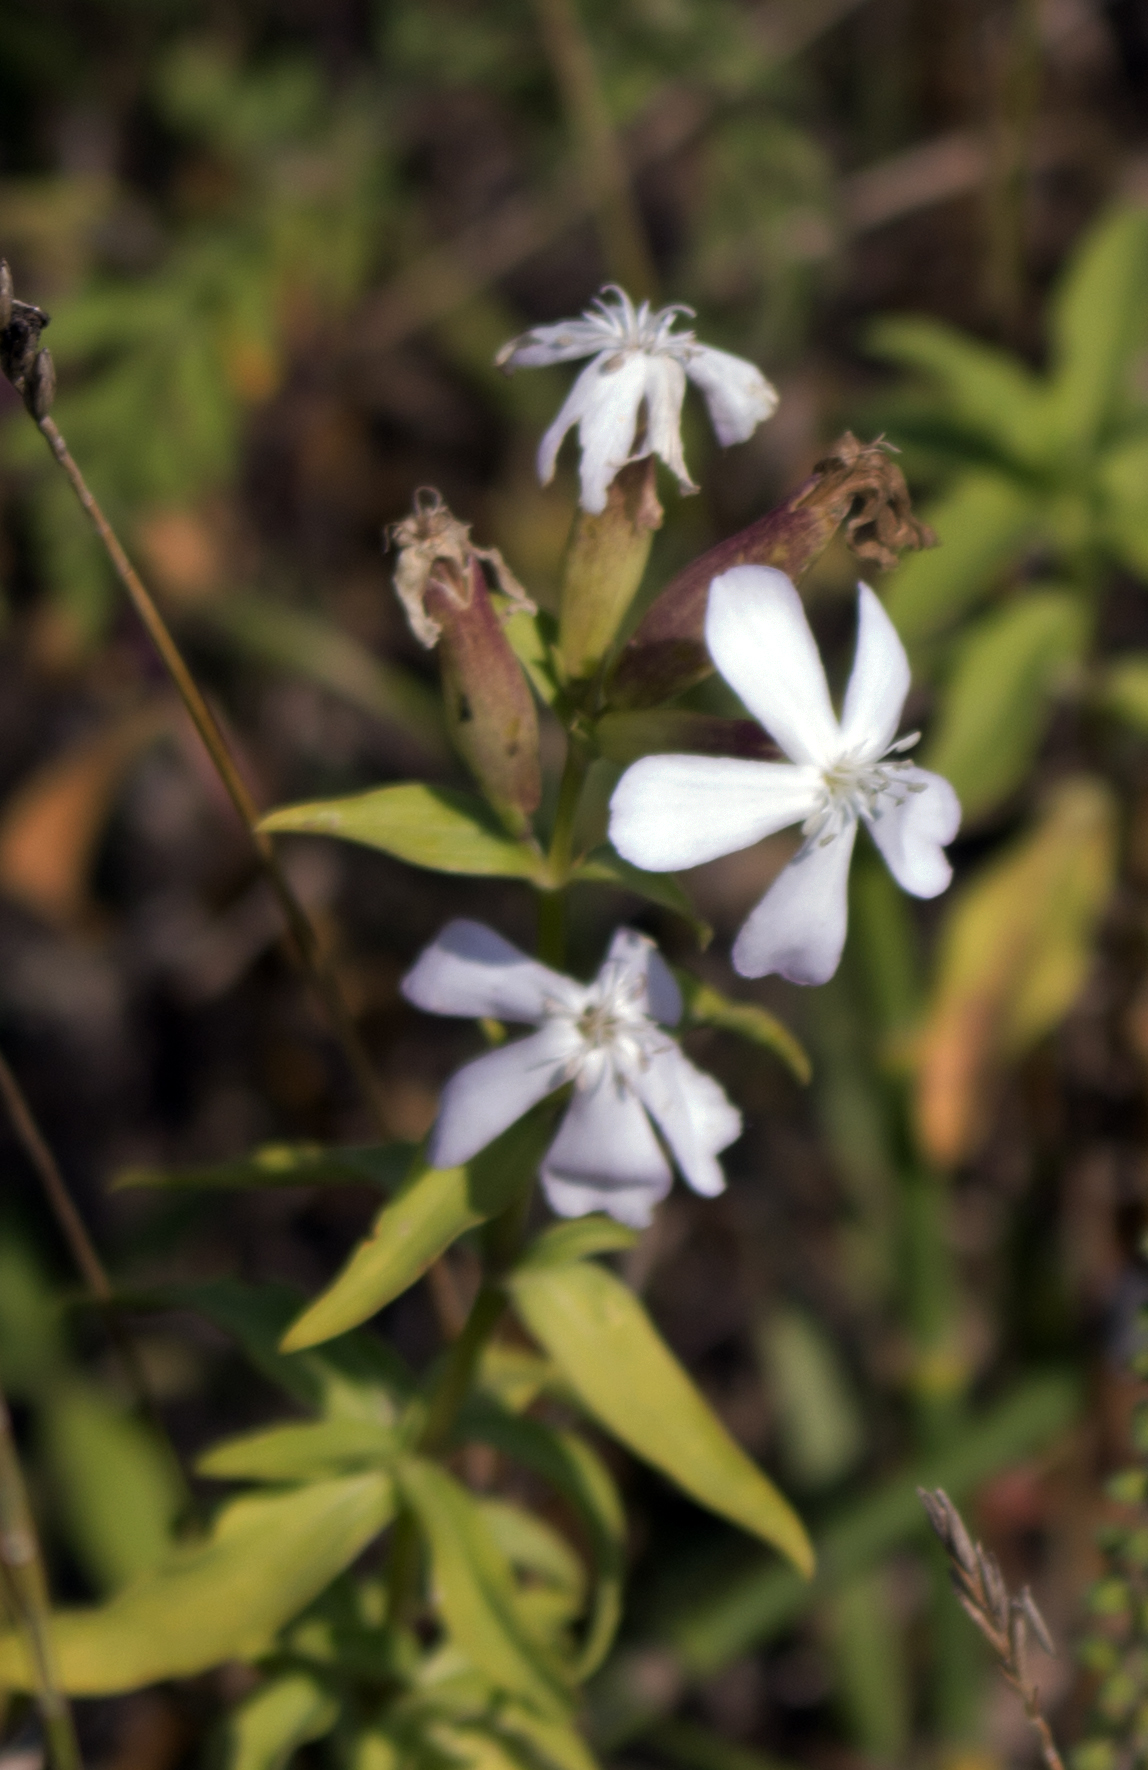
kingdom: Plantae
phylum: Tracheophyta
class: Magnoliopsida
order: Caryophyllales
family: Caryophyllaceae
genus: Saponaria
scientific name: Saponaria officinalis
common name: Soapwort
